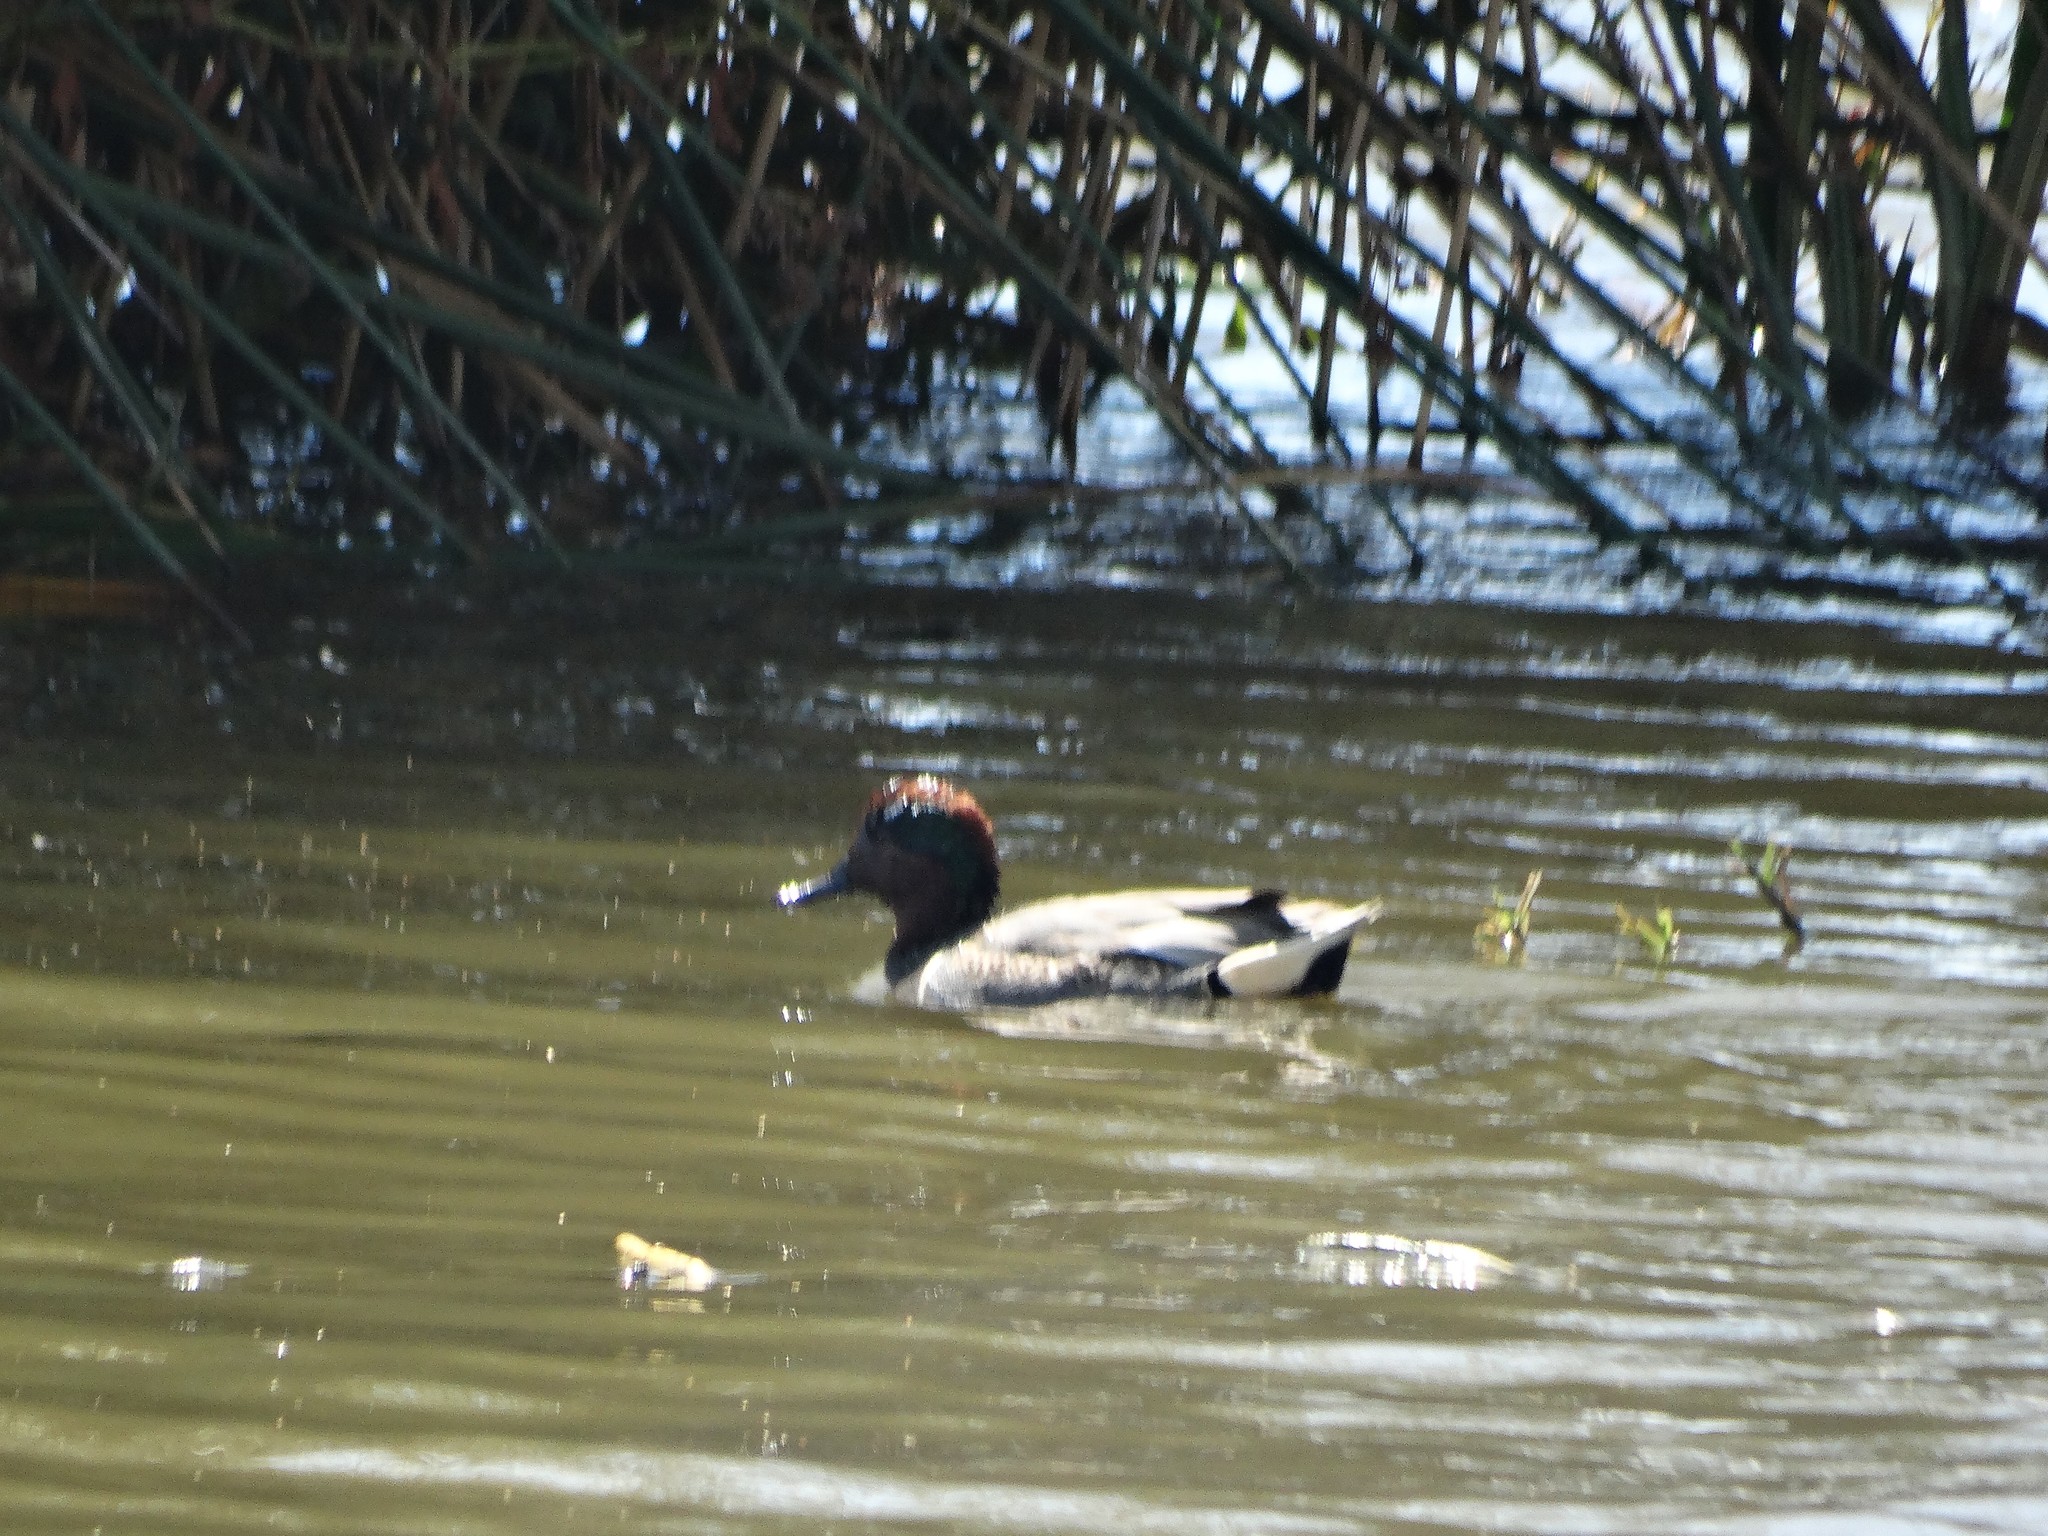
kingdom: Animalia
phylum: Chordata
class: Aves
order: Anseriformes
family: Anatidae
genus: Anas
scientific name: Anas crecca
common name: Eurasian teal
